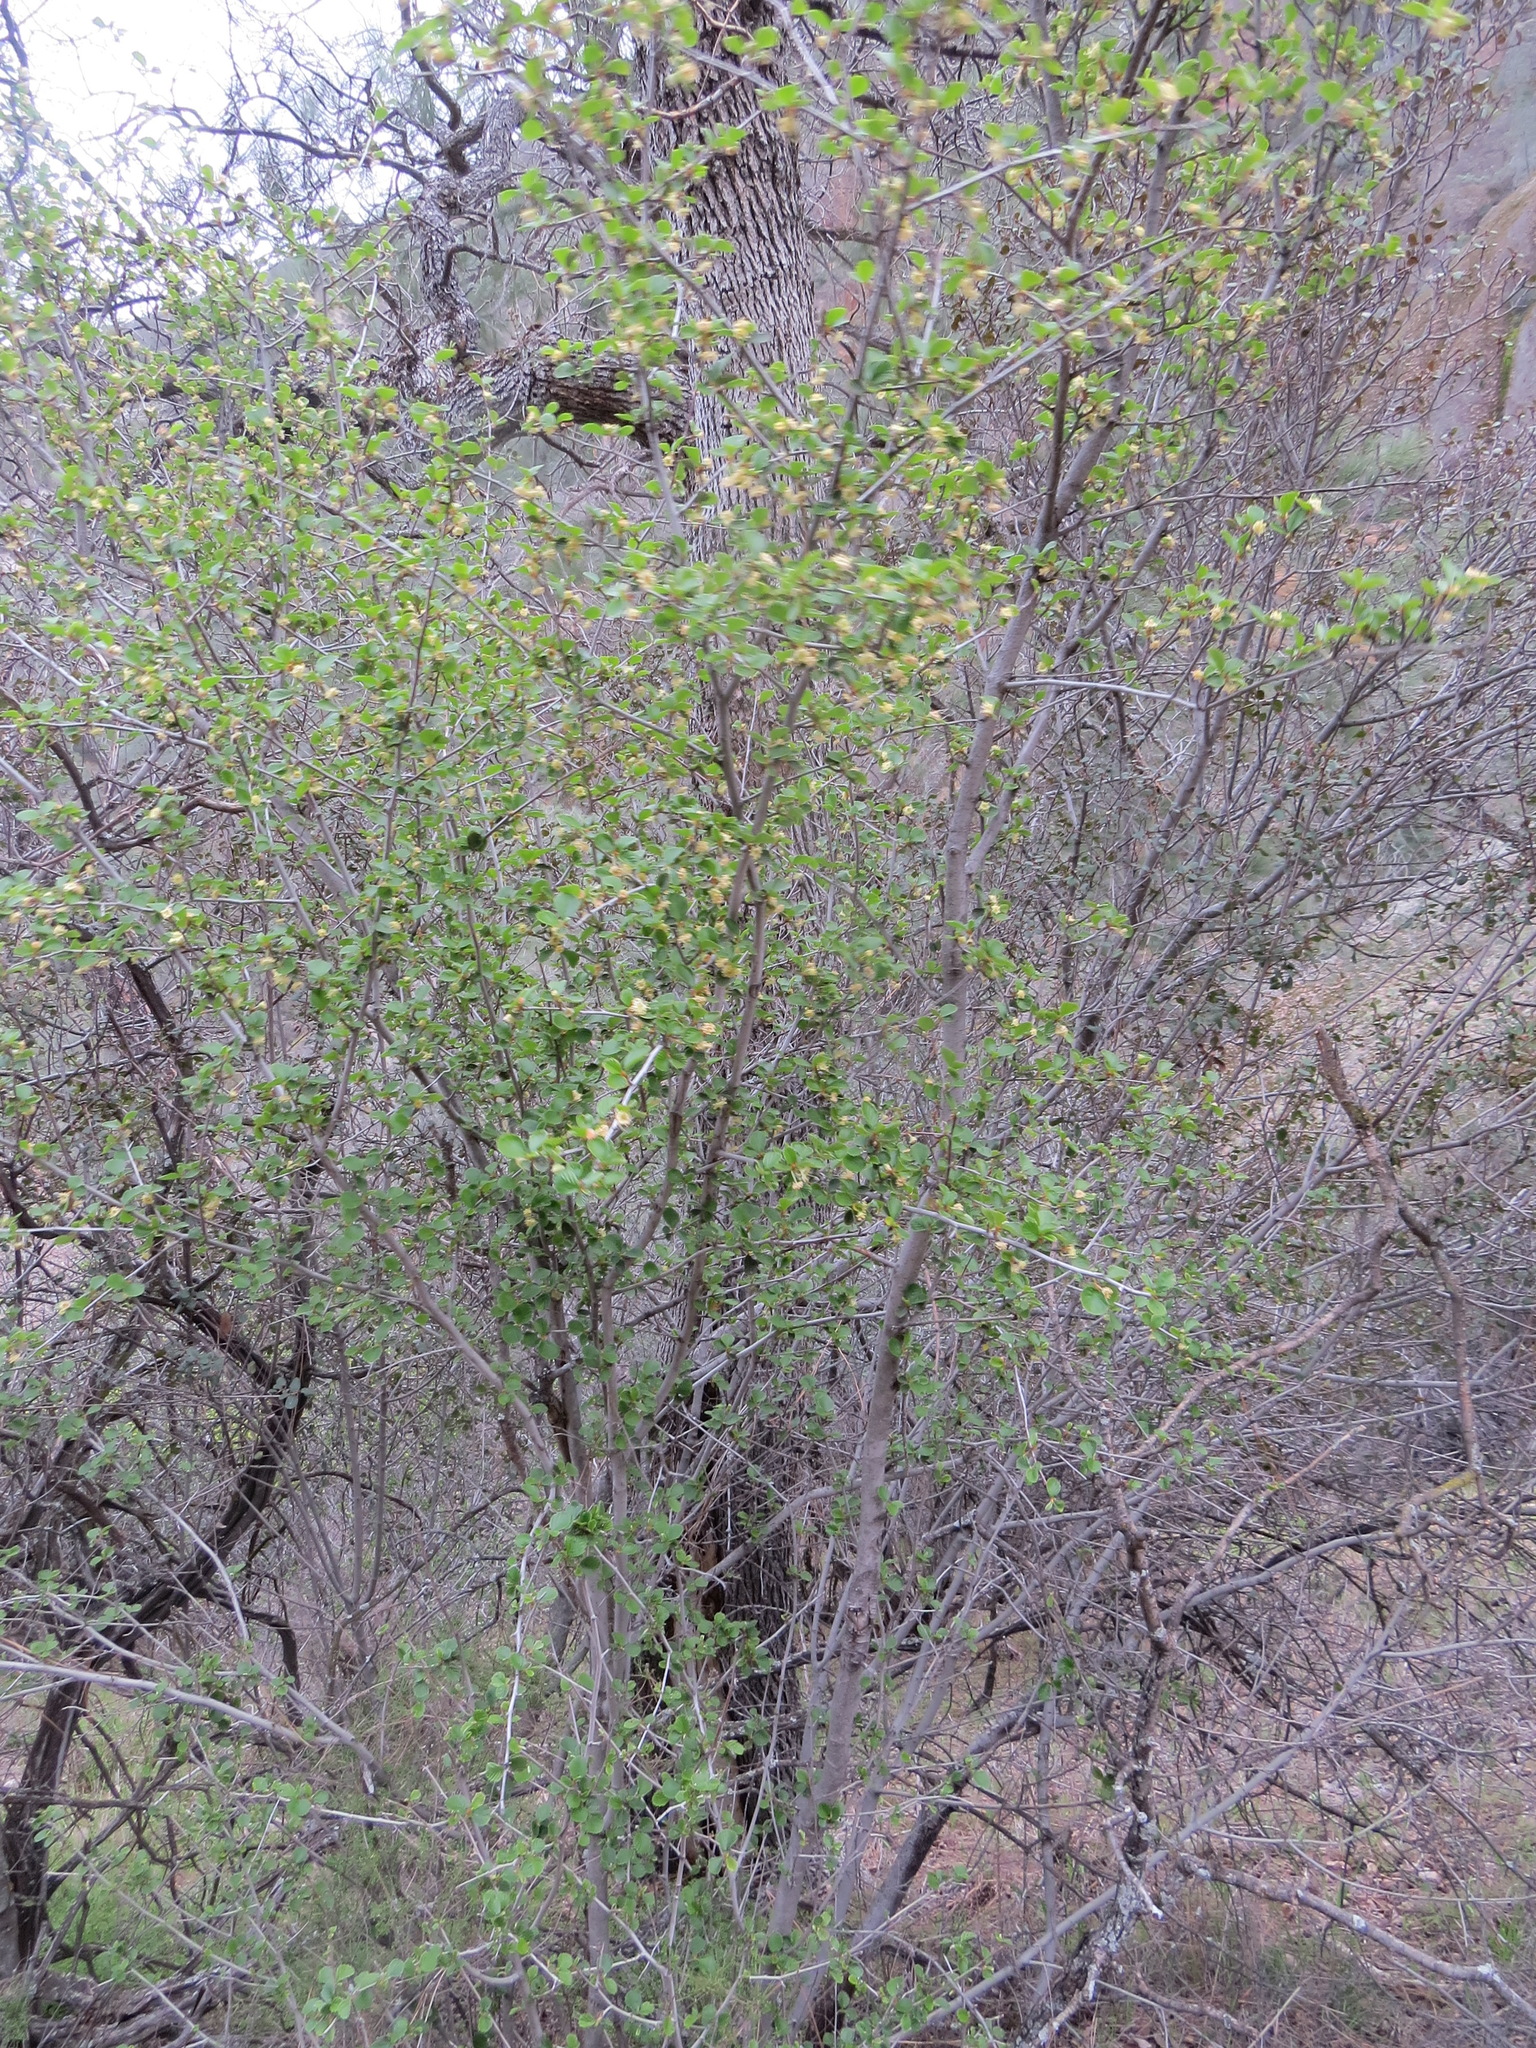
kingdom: Plantae
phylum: Tracheophyta
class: Magnoliopsida
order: Rosales
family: Rosaceae
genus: Cercocarpus
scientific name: Cercocarpus betuloides
